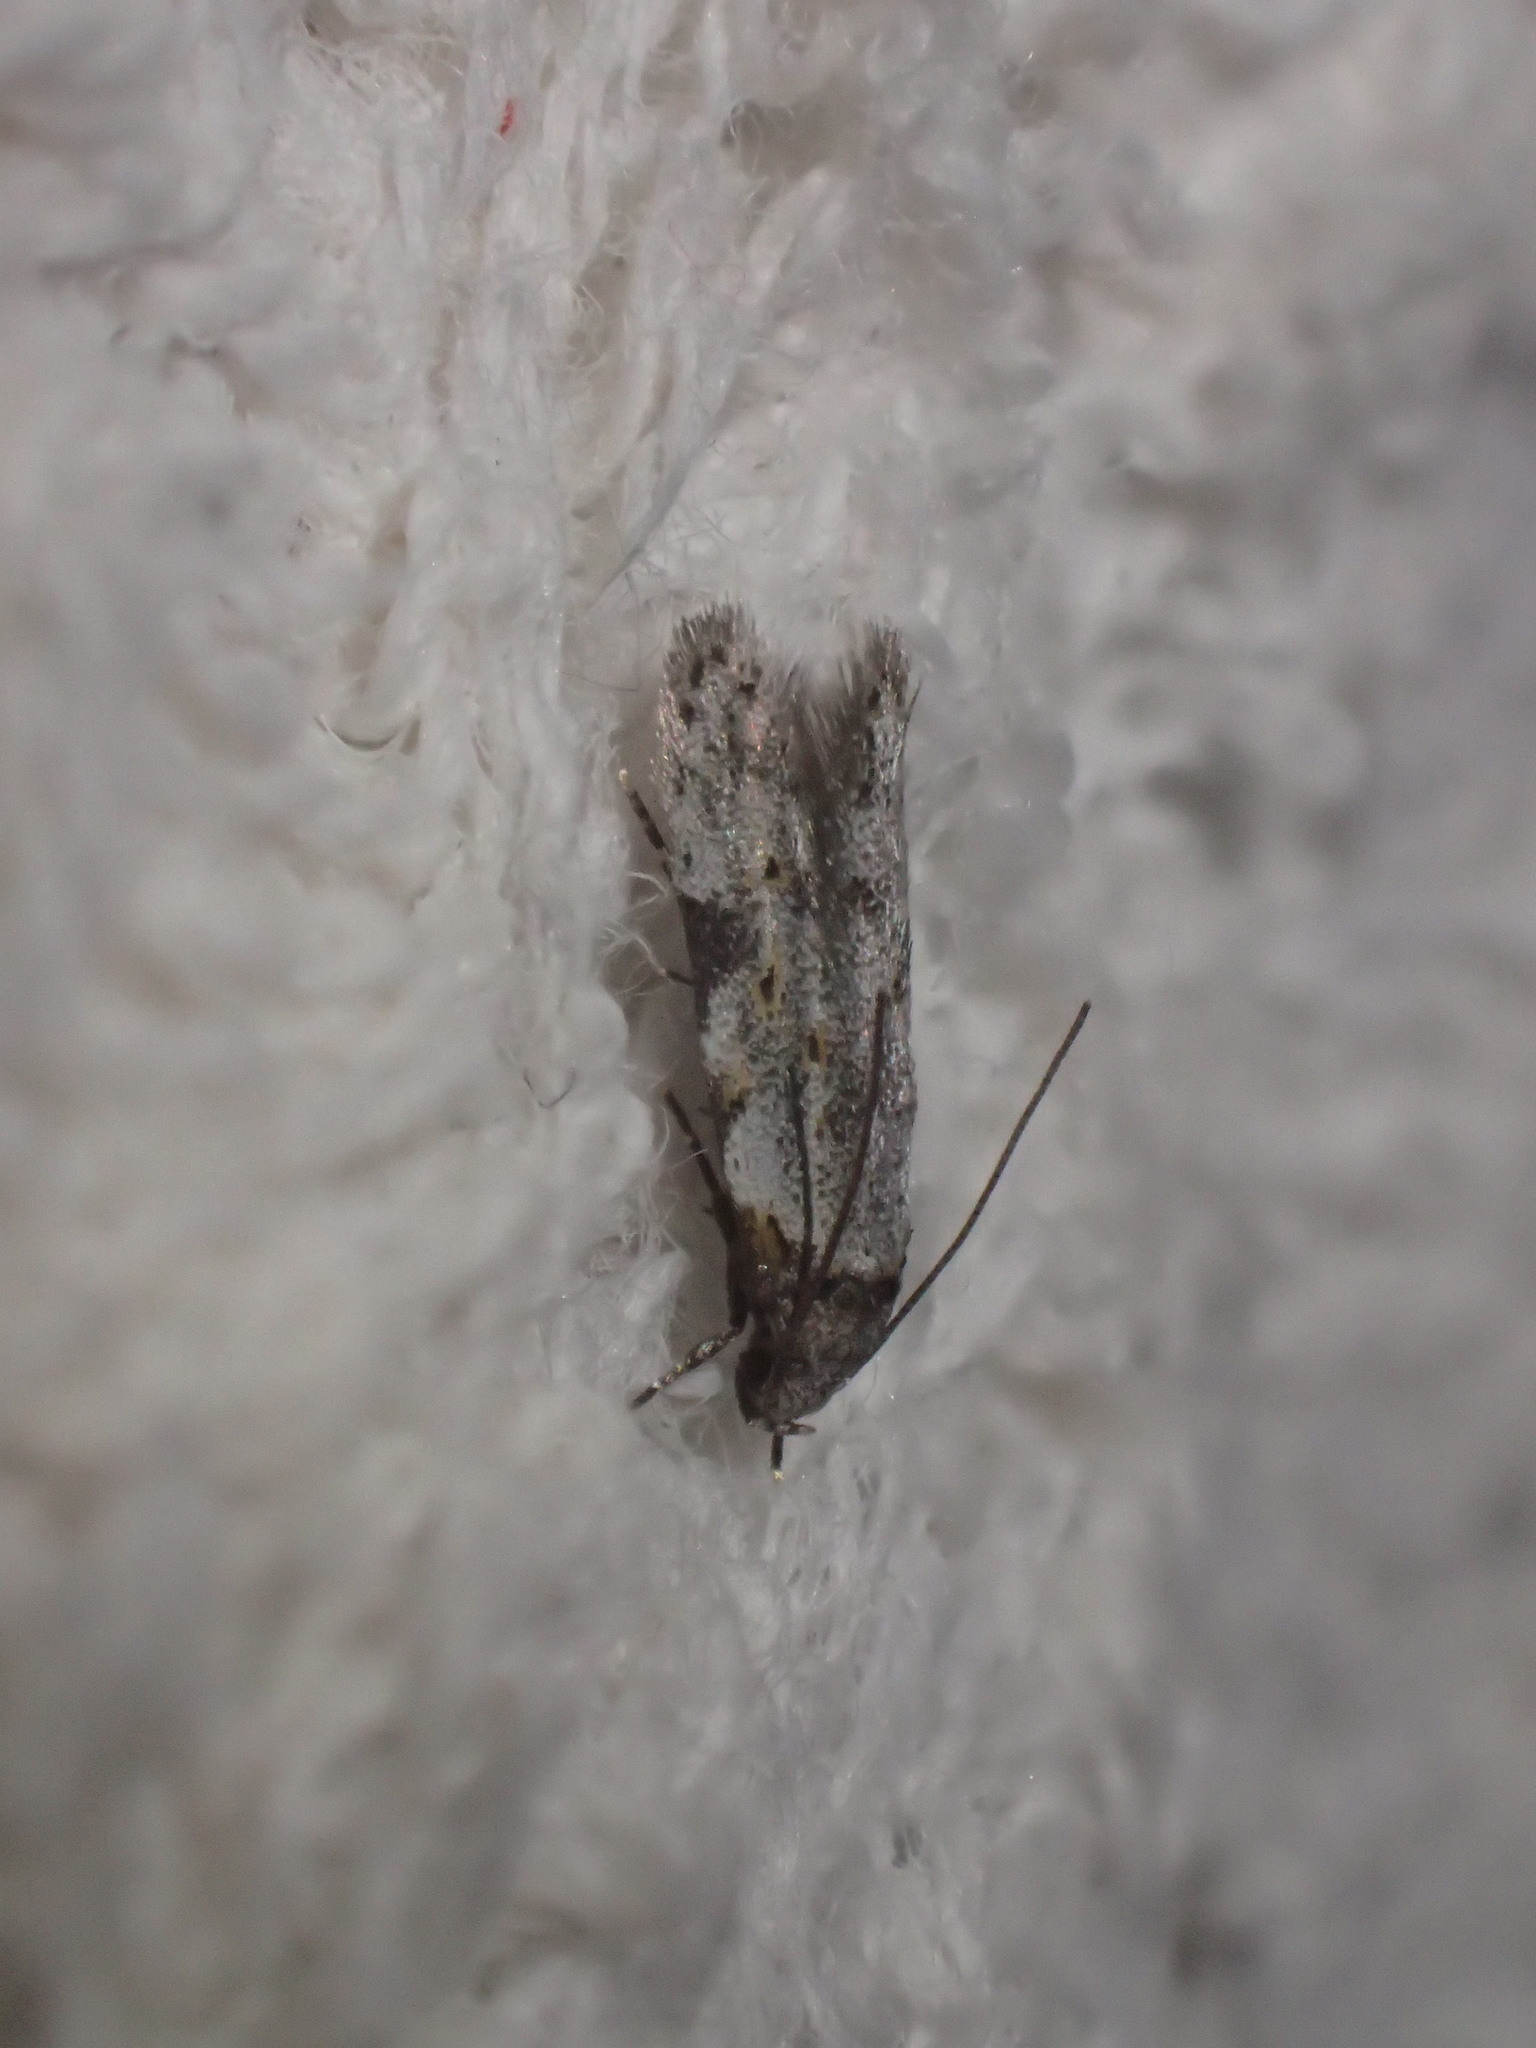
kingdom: Animalia
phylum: Arthropoda
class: Insecta
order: Lepidoptera
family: Autostichidae
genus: Taygete
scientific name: Taygete attributella
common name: Triangle-marked twirler moth
